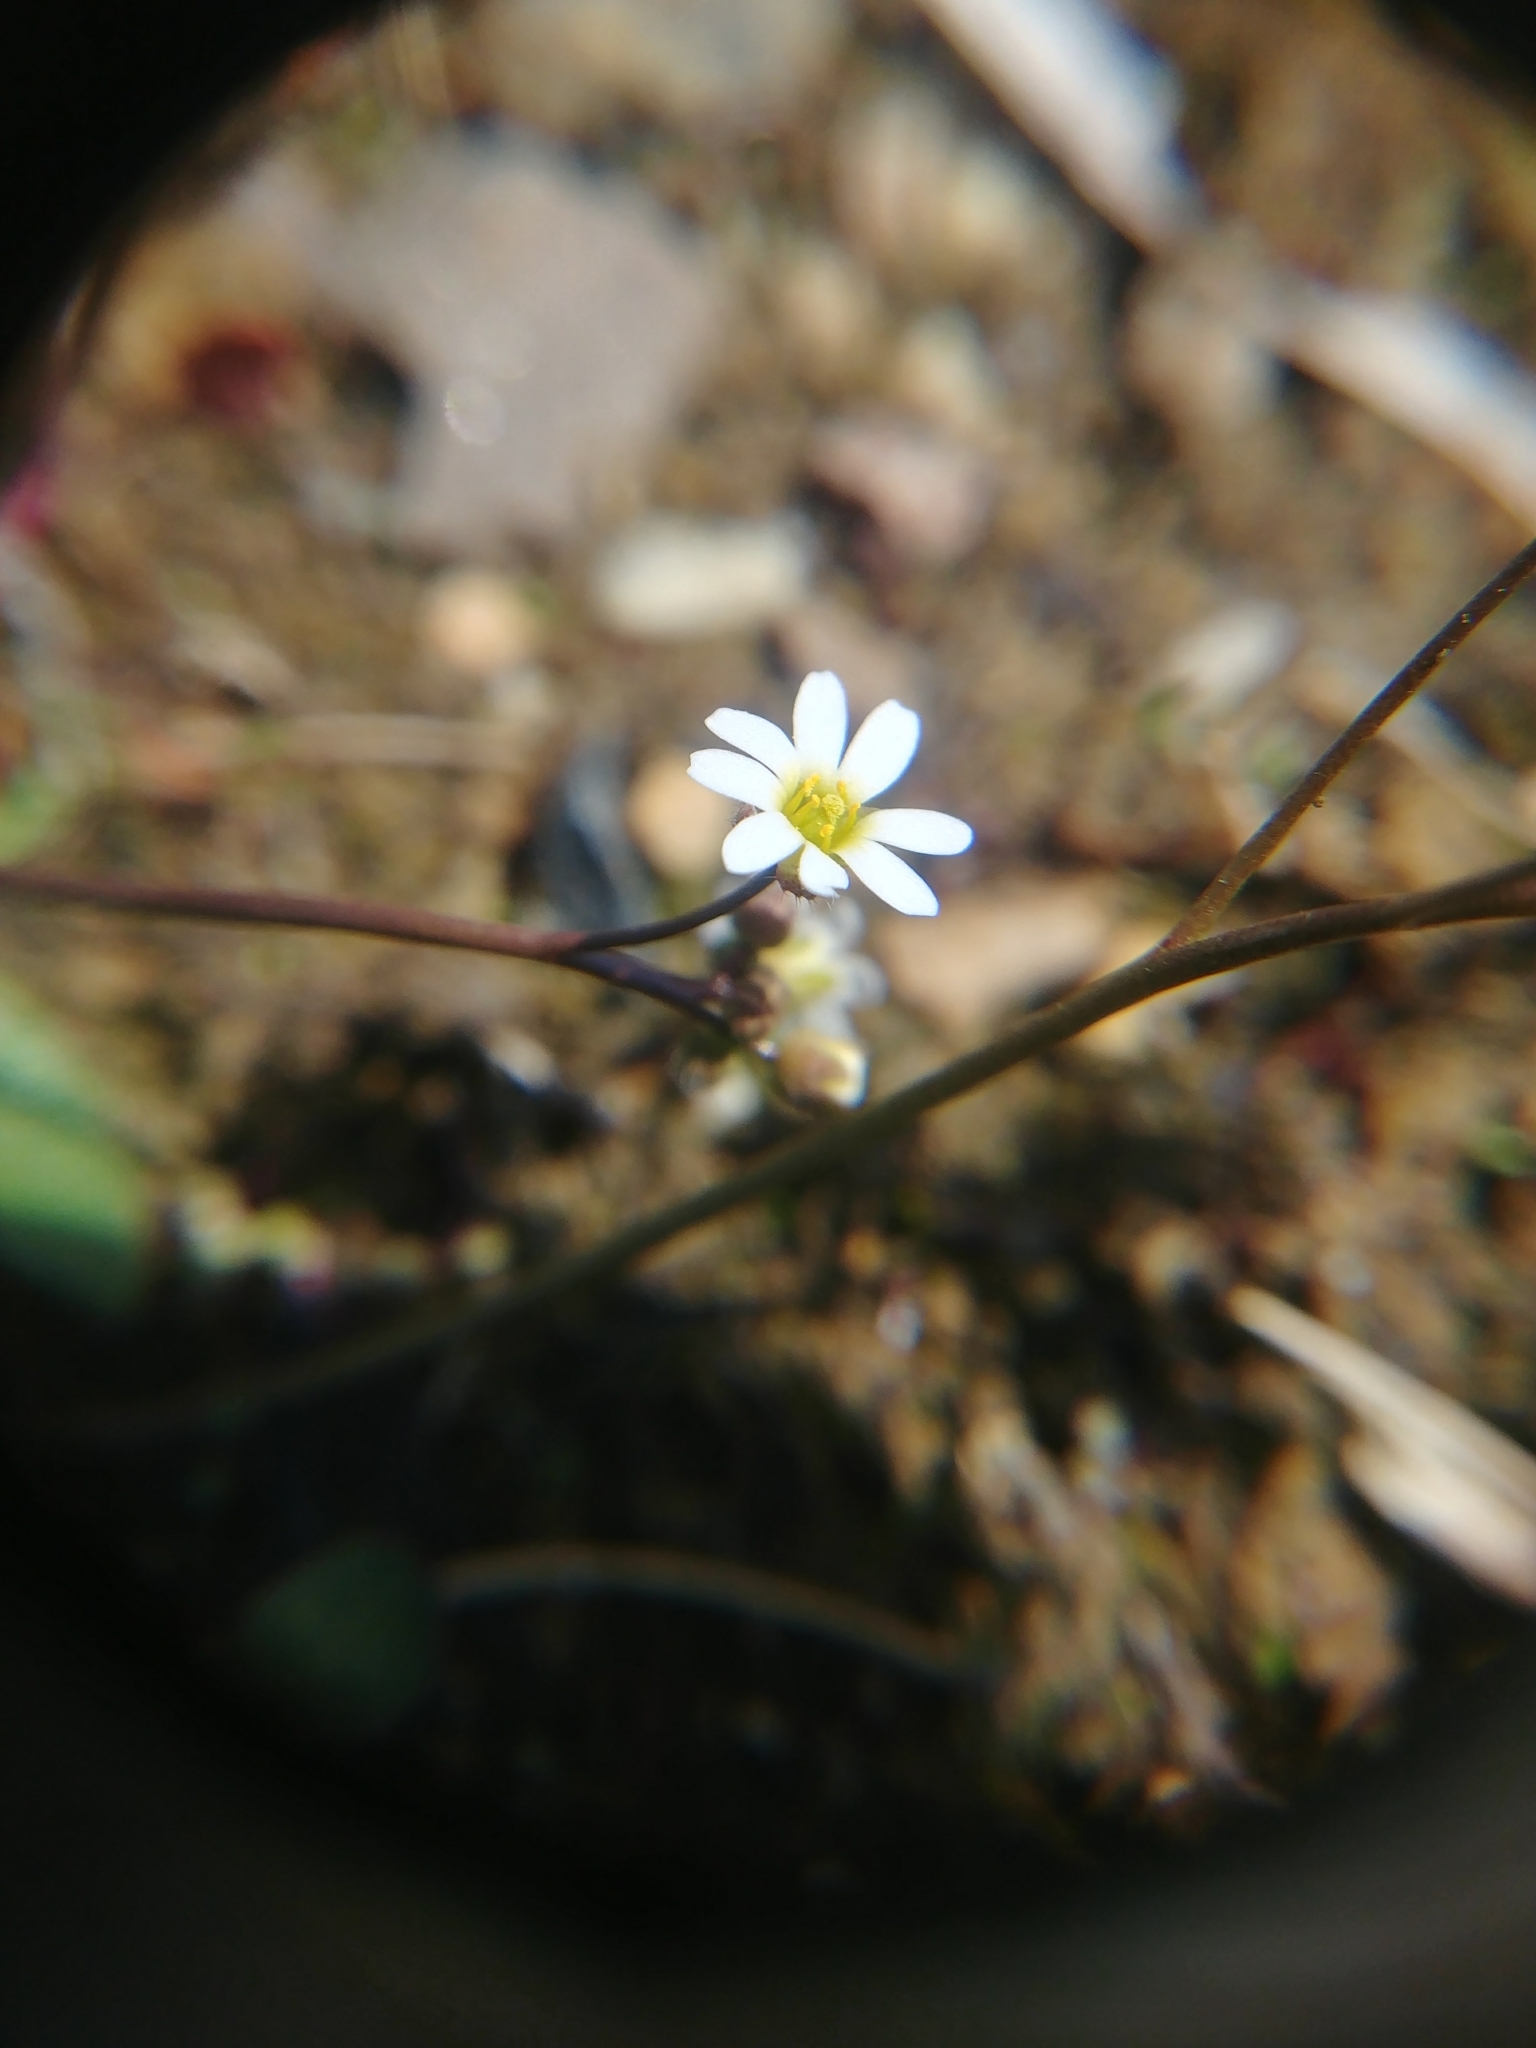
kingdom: Plantae
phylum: Tracheophyta
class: Magnoliopsida
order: Brassicales
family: Brassicaceae
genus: Draba
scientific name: Draba verna
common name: Spring draba
